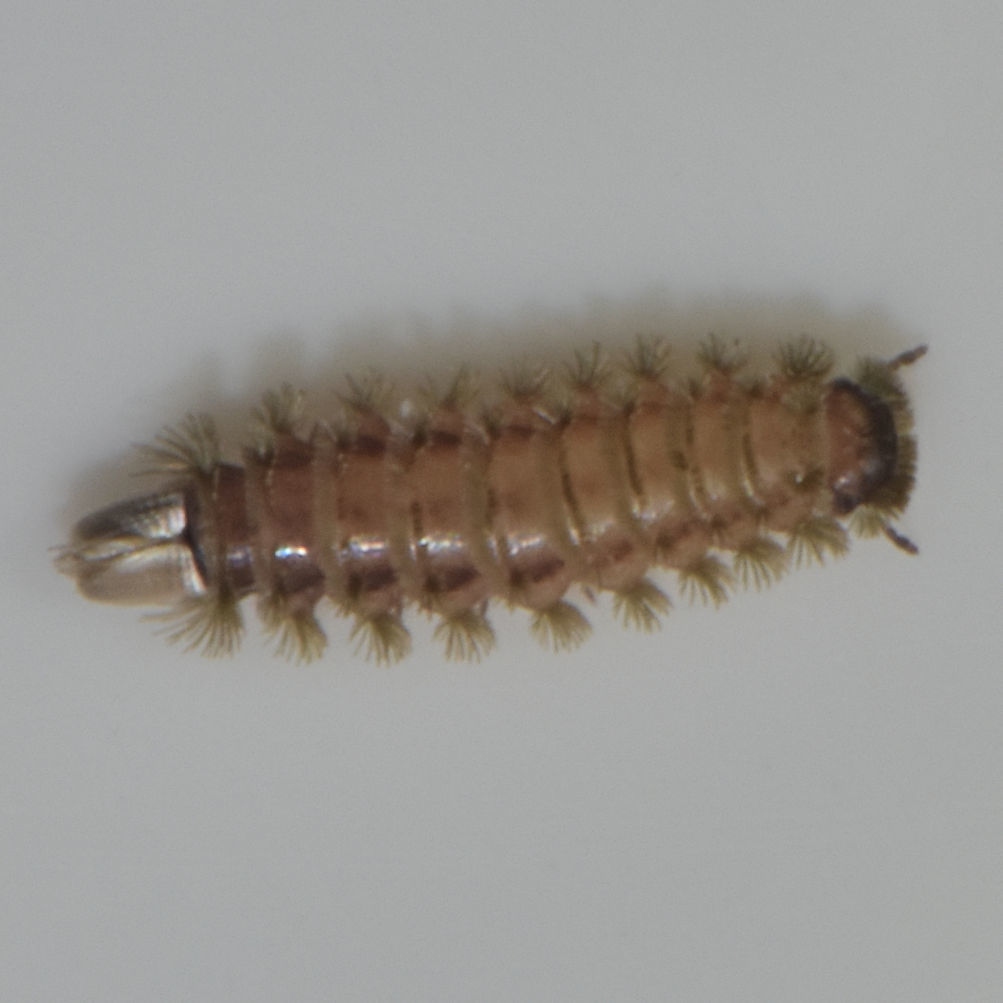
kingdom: Animalia
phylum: Arthropoda
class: Diplopoda
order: Polyxenida
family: Polyxenidae
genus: Polyxenus
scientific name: Polyxenus lagurus
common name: Bristly millipede
